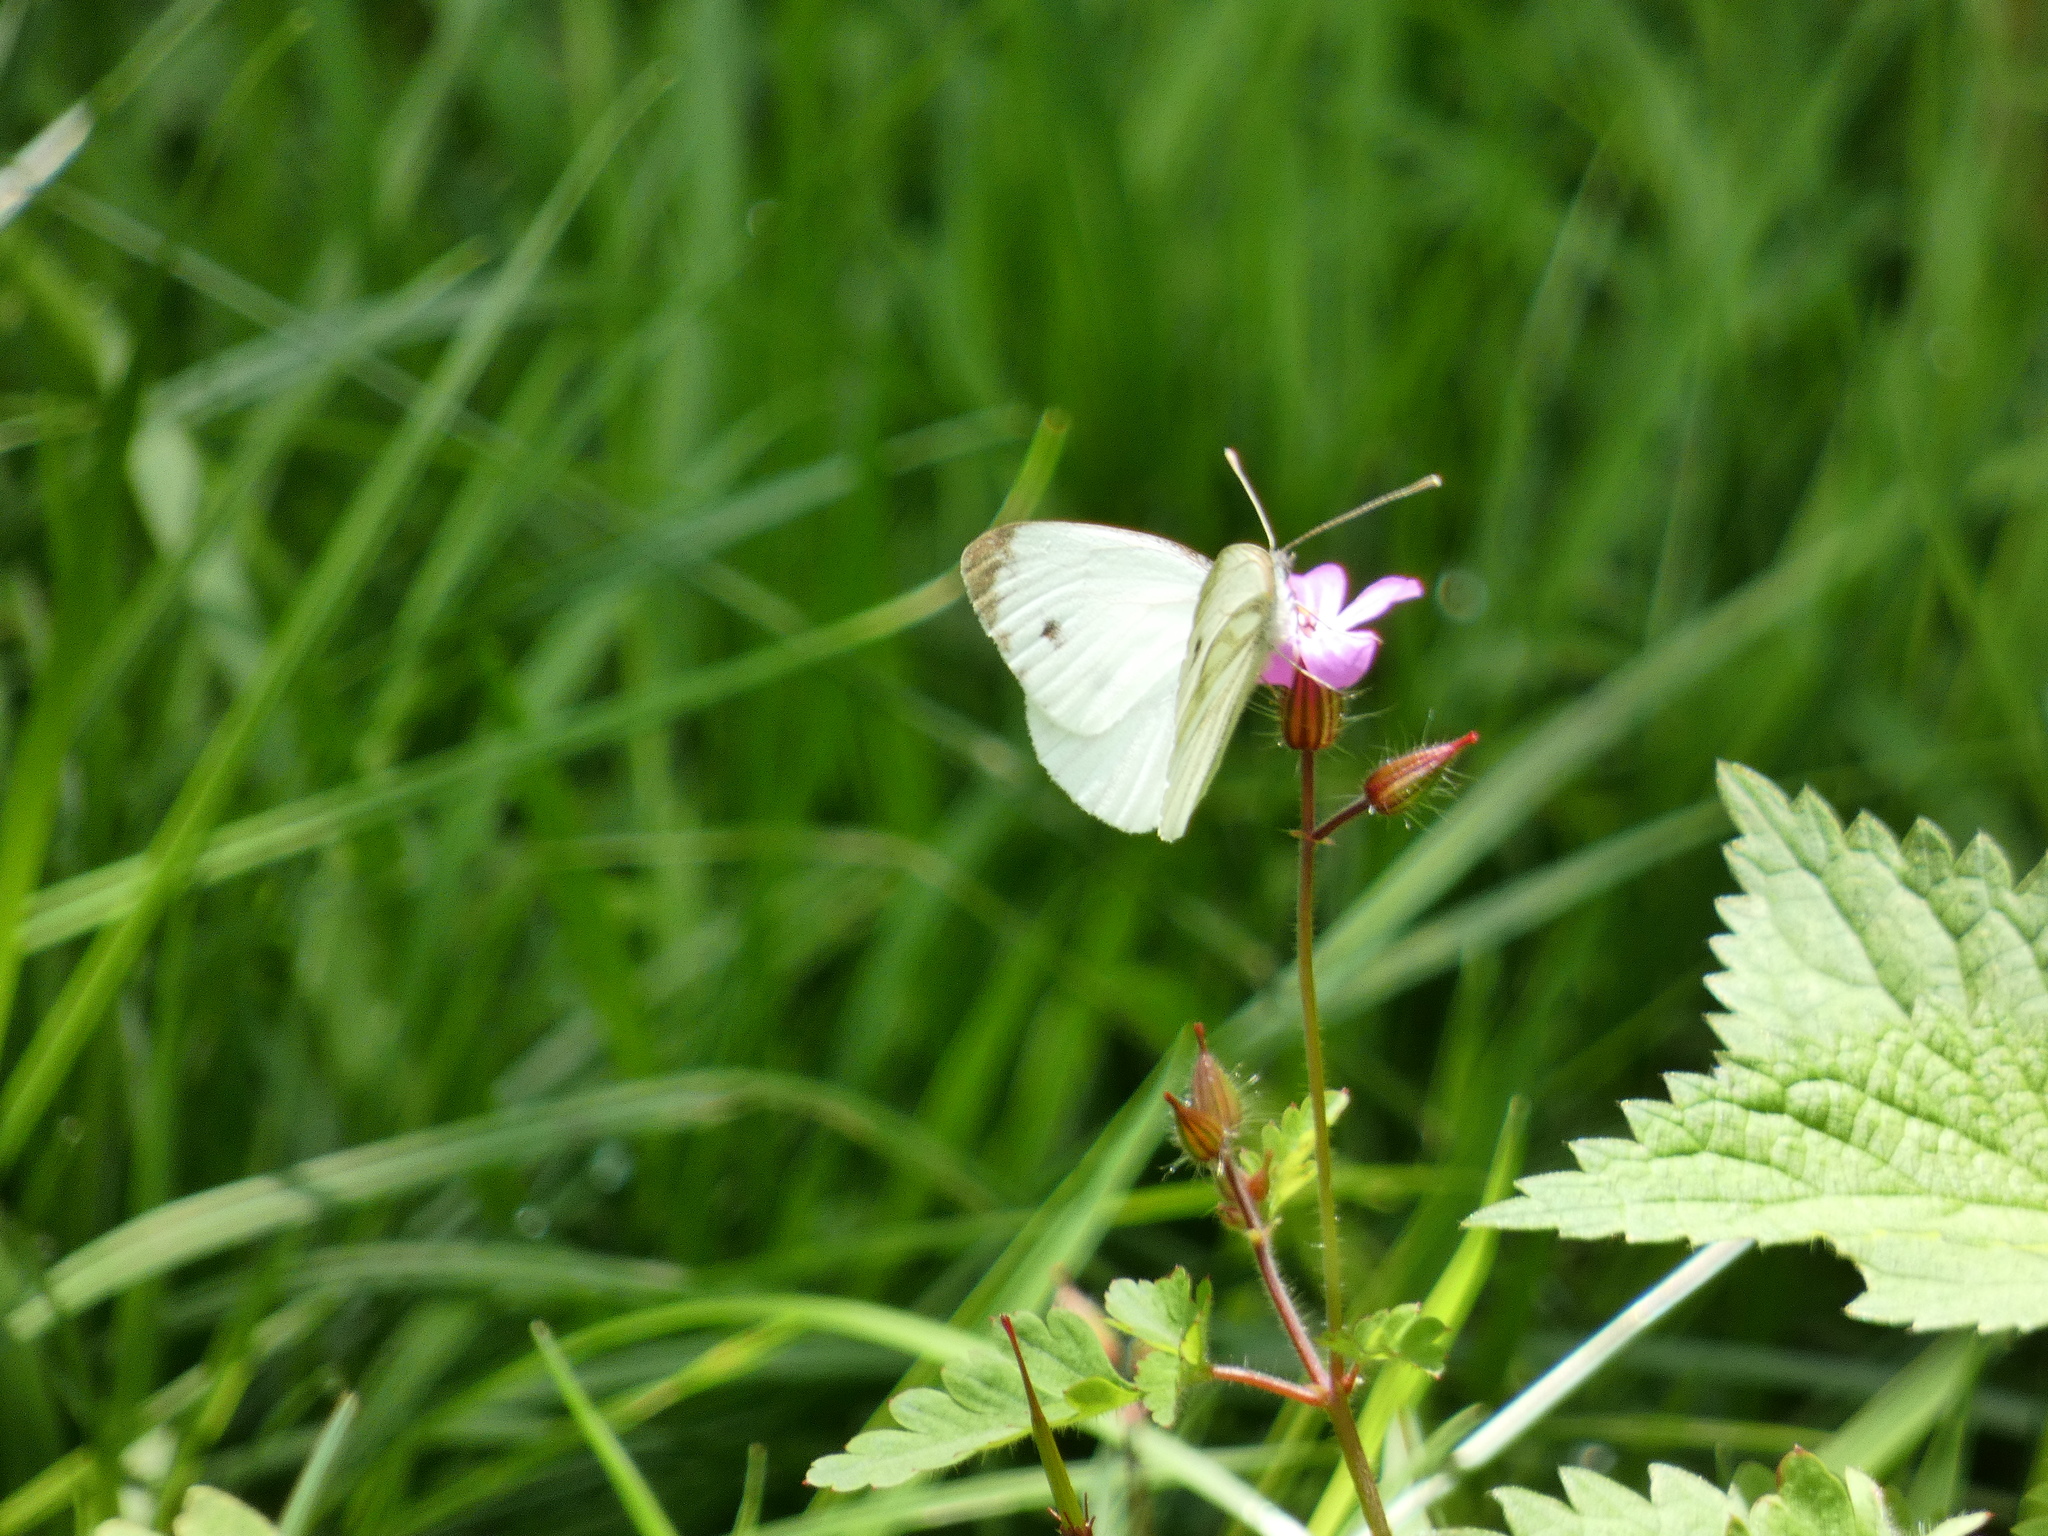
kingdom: Animalia
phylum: Arthropoda
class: Insecta
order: Lepidoptera
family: Pieridae
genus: Pieris
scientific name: Pieris napi
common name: Green-veined white
